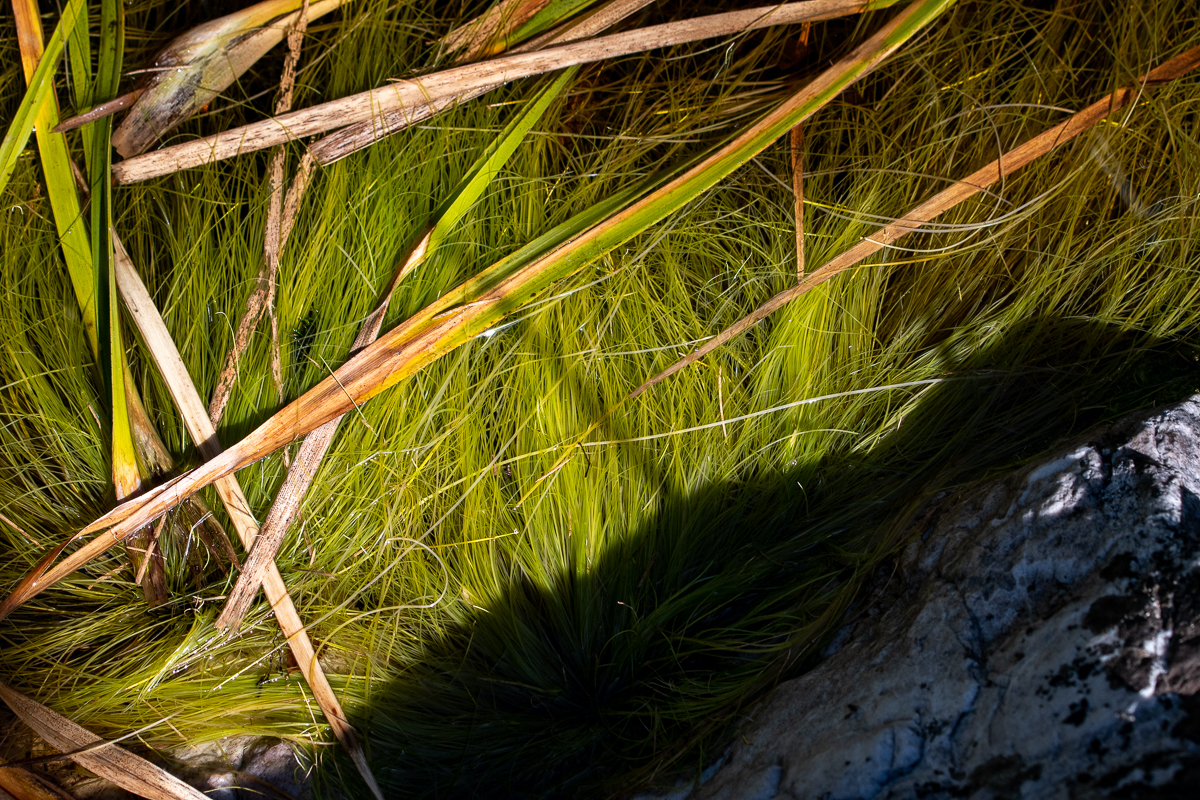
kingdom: Plantae
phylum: Tracheophyta
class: Liliopsida
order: Poales
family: Cyperaceae
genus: Isolepis
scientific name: Isolepis digitata
